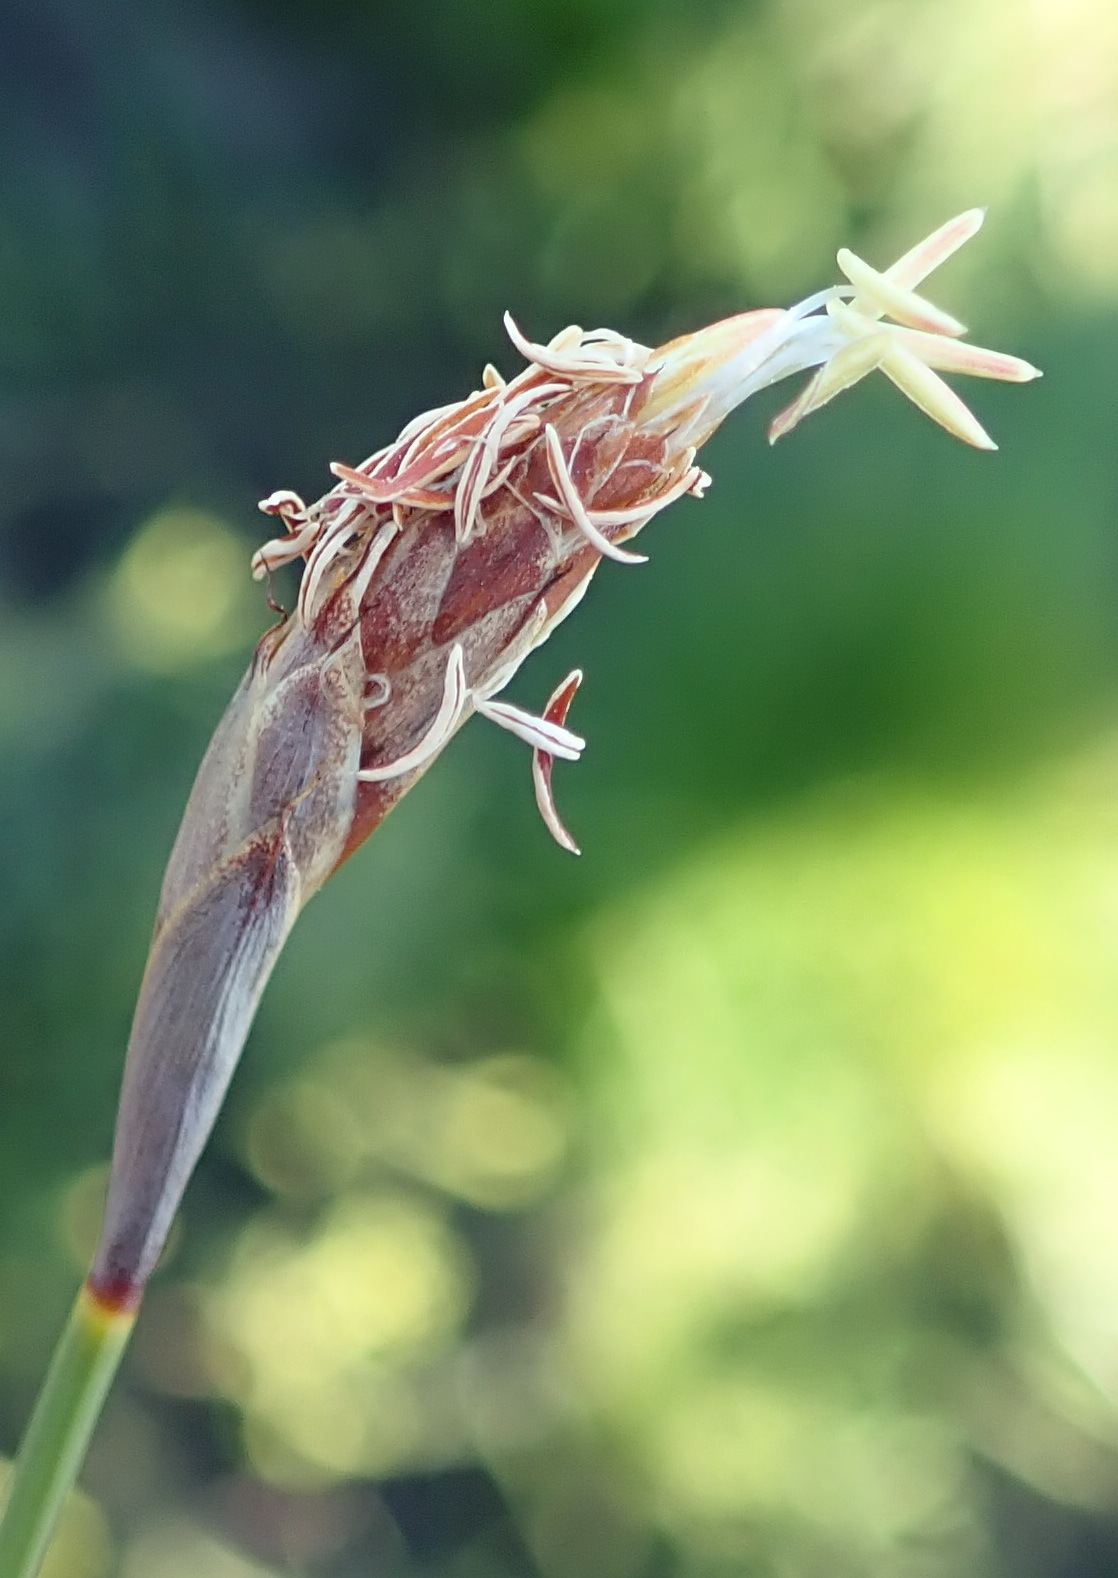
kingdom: Plantae
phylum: Tracheophyta
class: Liliopsida
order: Poales
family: Restionaceae
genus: Hypodiscus
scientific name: Hypodiscus willdenowia
